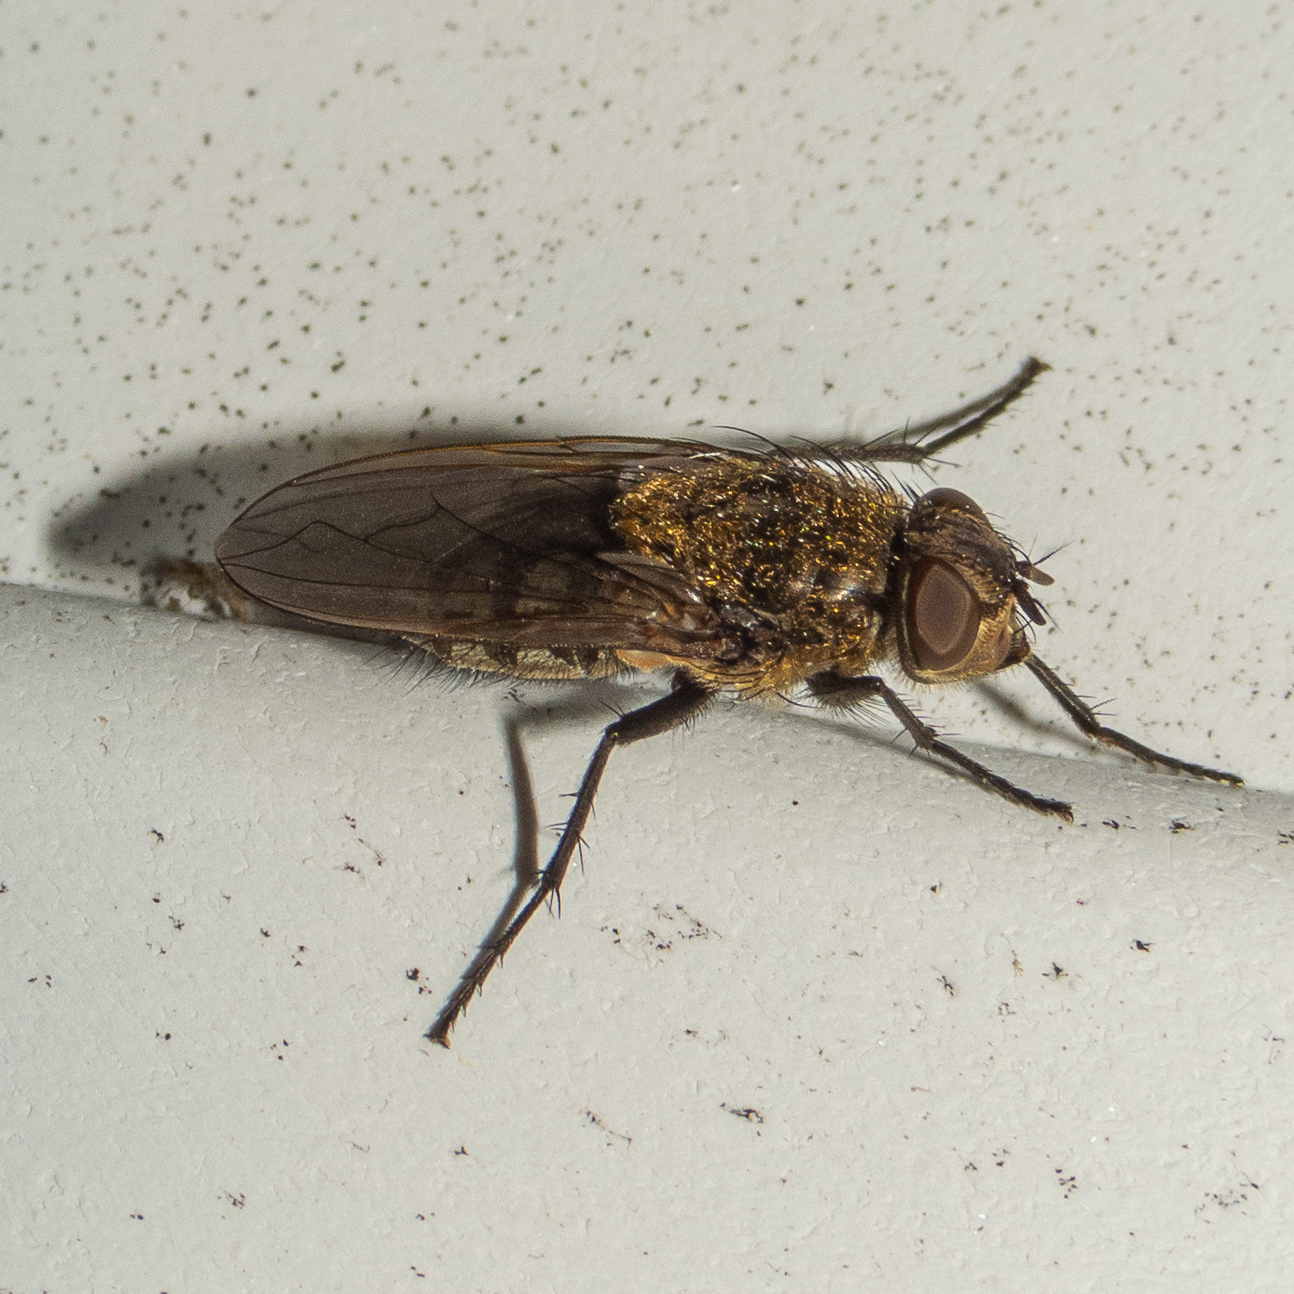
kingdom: Animalia
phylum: Arthropoda
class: Insecta
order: Diptera
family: Polleniidae
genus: Pollenia
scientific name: Pollenia
